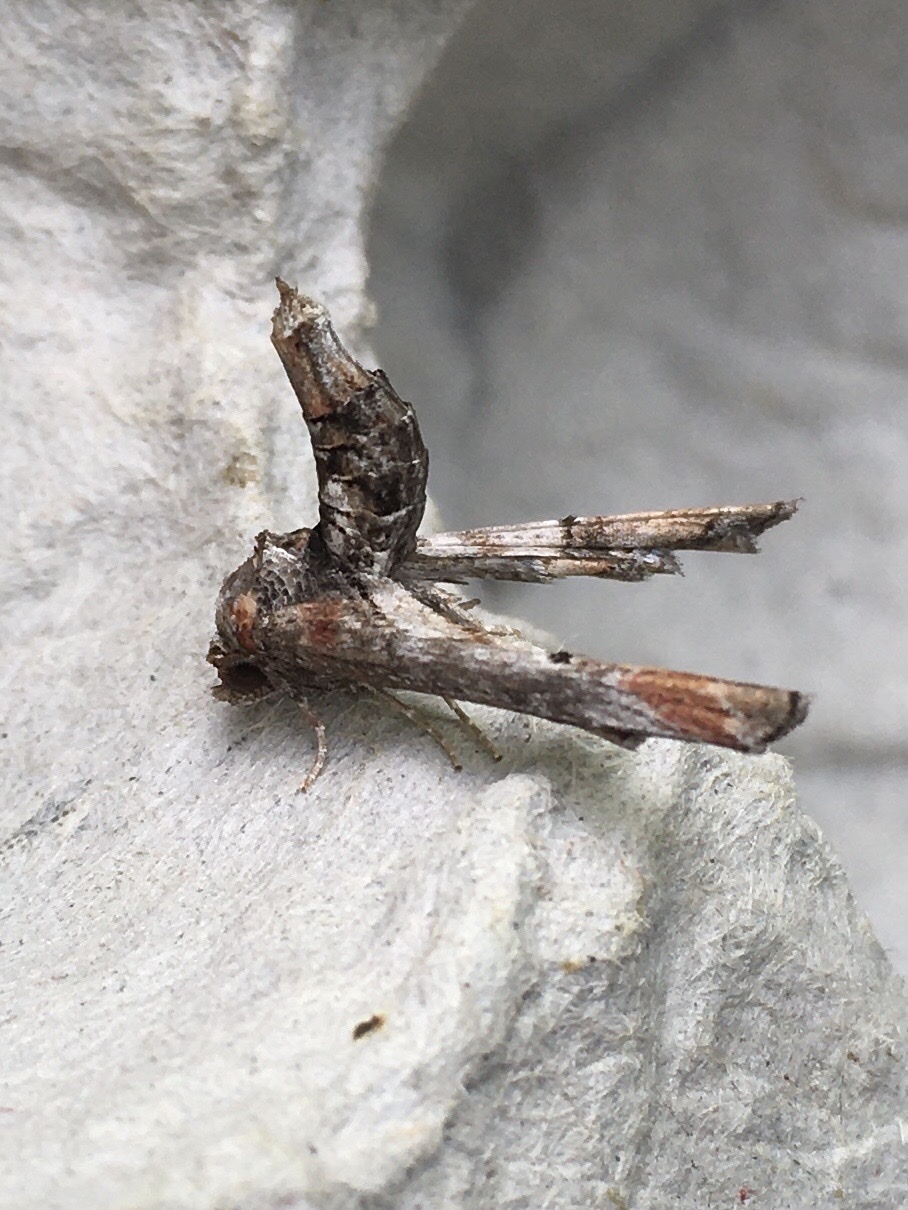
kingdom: Animalia
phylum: Arthropoda
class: Insecta
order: Lepidoptera
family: Euteliidae
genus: Marathyssa
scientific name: Marathyssa inficita
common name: Dark marathyssa moth
